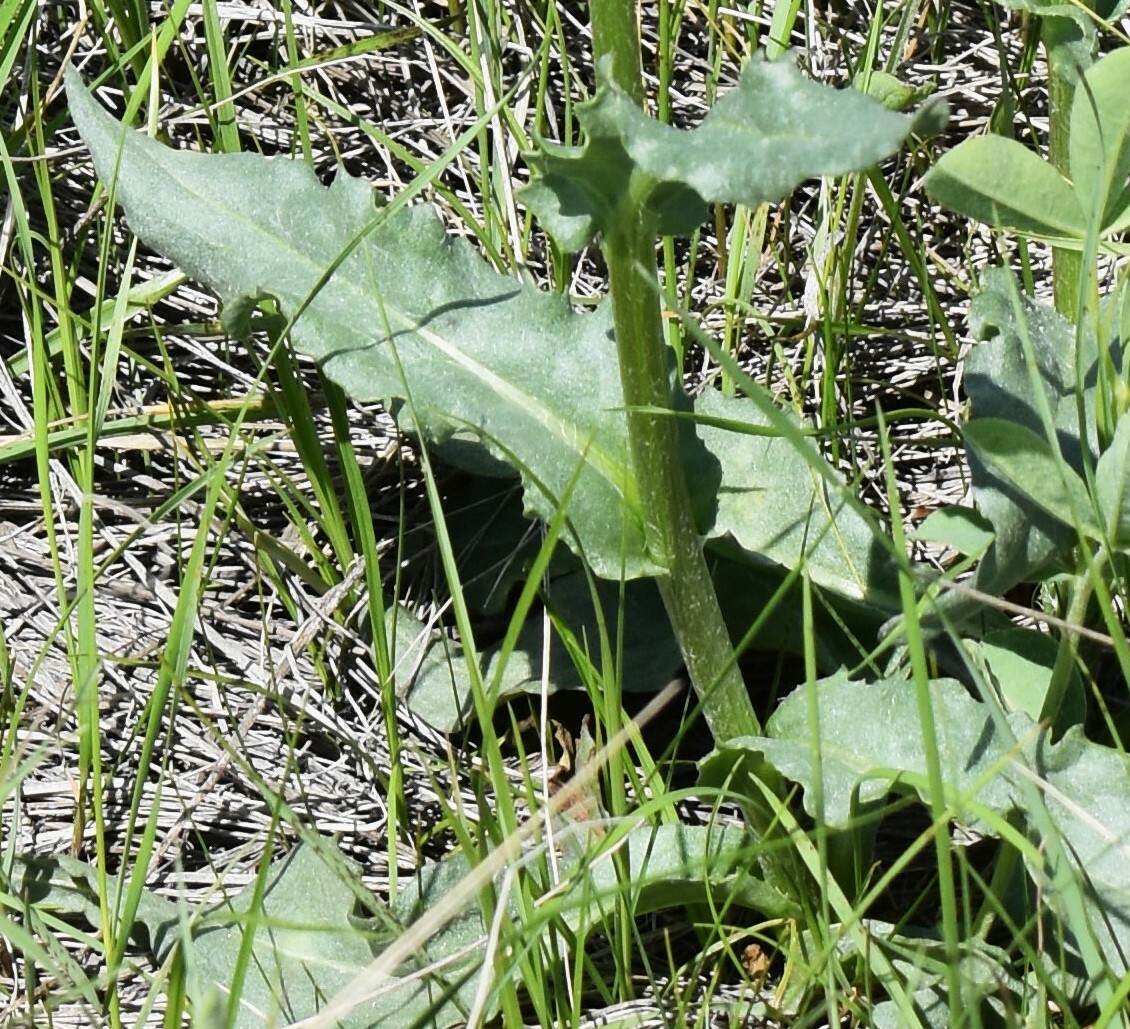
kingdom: Plantae
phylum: Tracheophyta
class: Magnoliopsida
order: Asterales
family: Asteraceae
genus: Senecio
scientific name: Senecio integerrimus
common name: Gaugeplant
